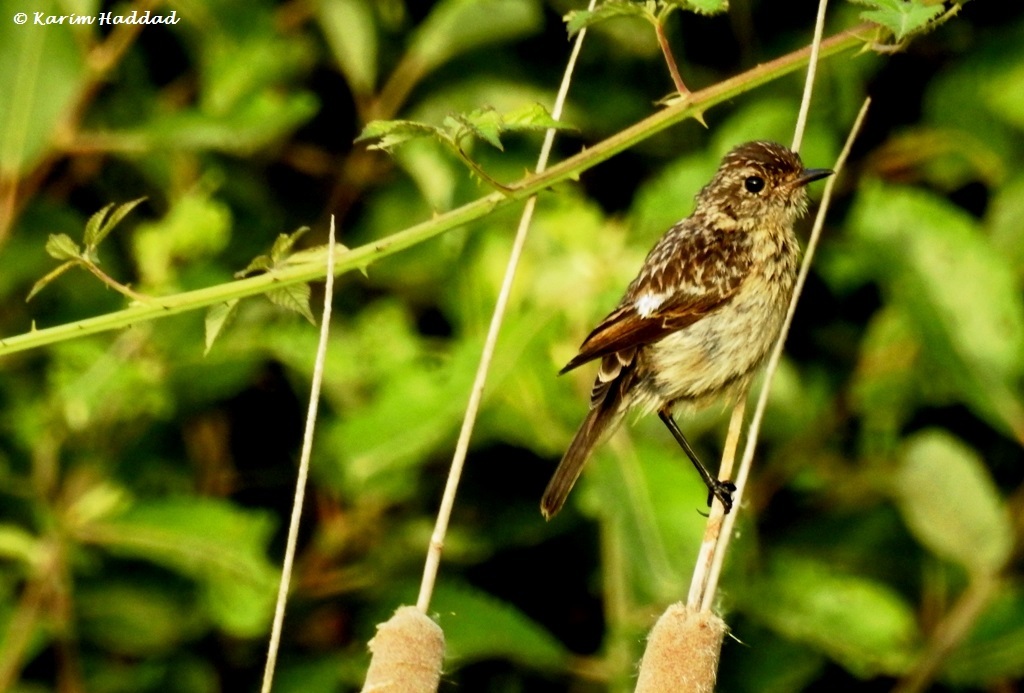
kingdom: Animalia
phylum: Chordata
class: Aves
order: Passeriformes
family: Muscicapidae
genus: Saxicola
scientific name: Saxicola rubicola
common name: European stonechat
